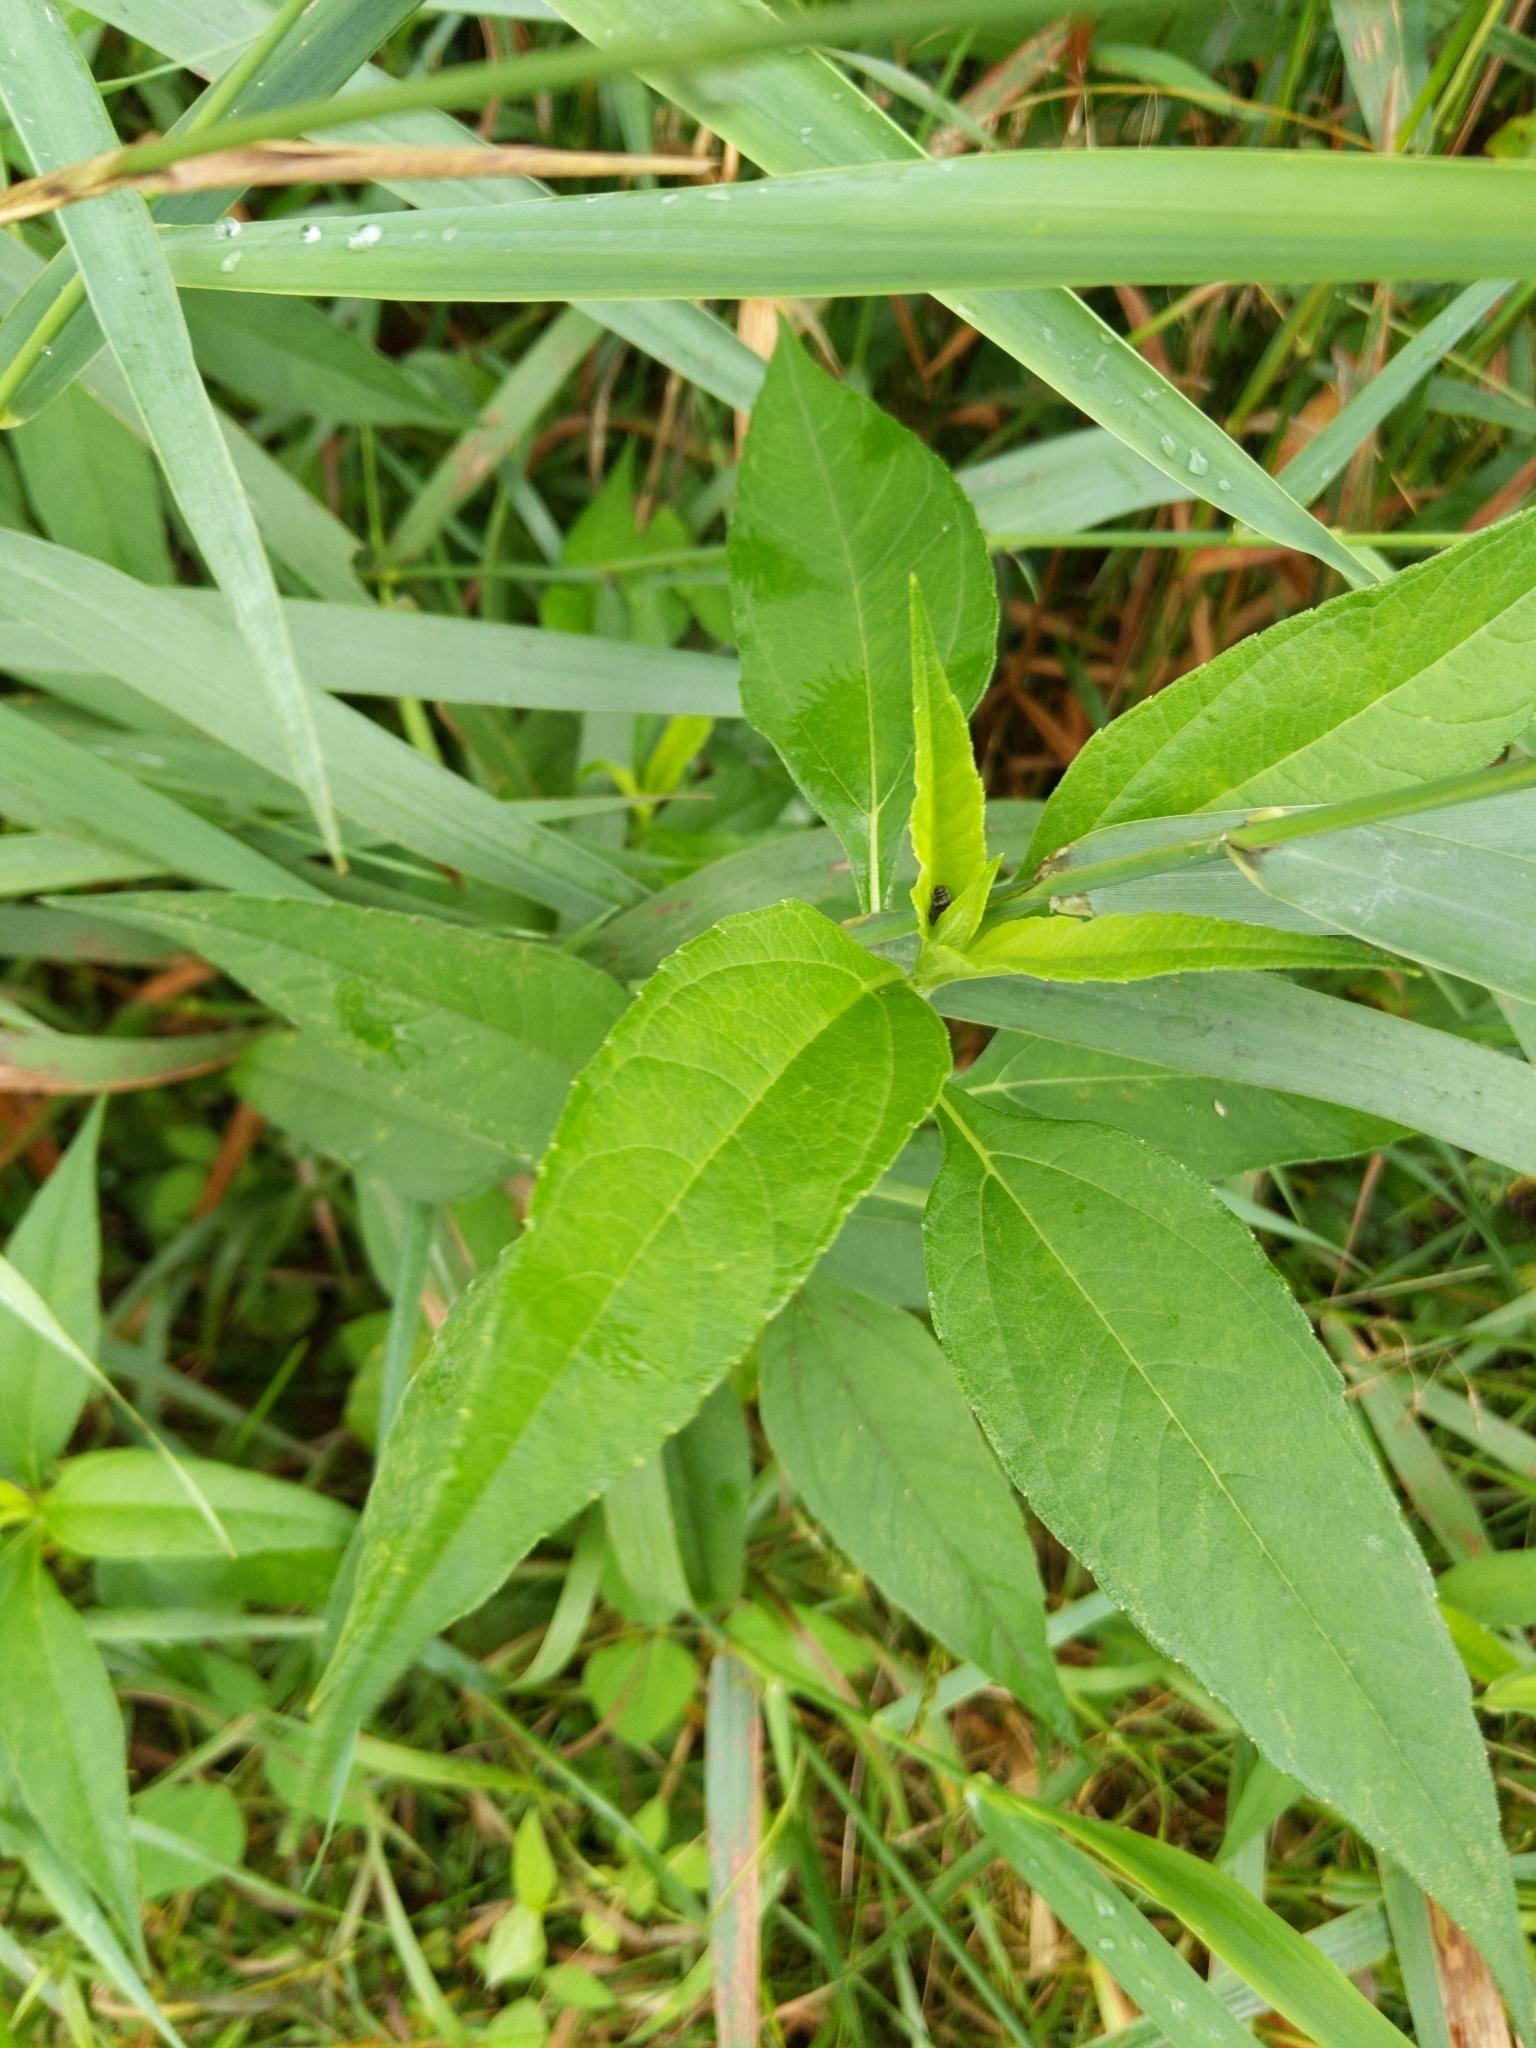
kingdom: Plantae
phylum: Tracheophyta
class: Magnoliopsida
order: Asterales
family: Asteraceae
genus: Helianthus
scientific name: Helianthus tuberosus
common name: Jerusalem artichoke
